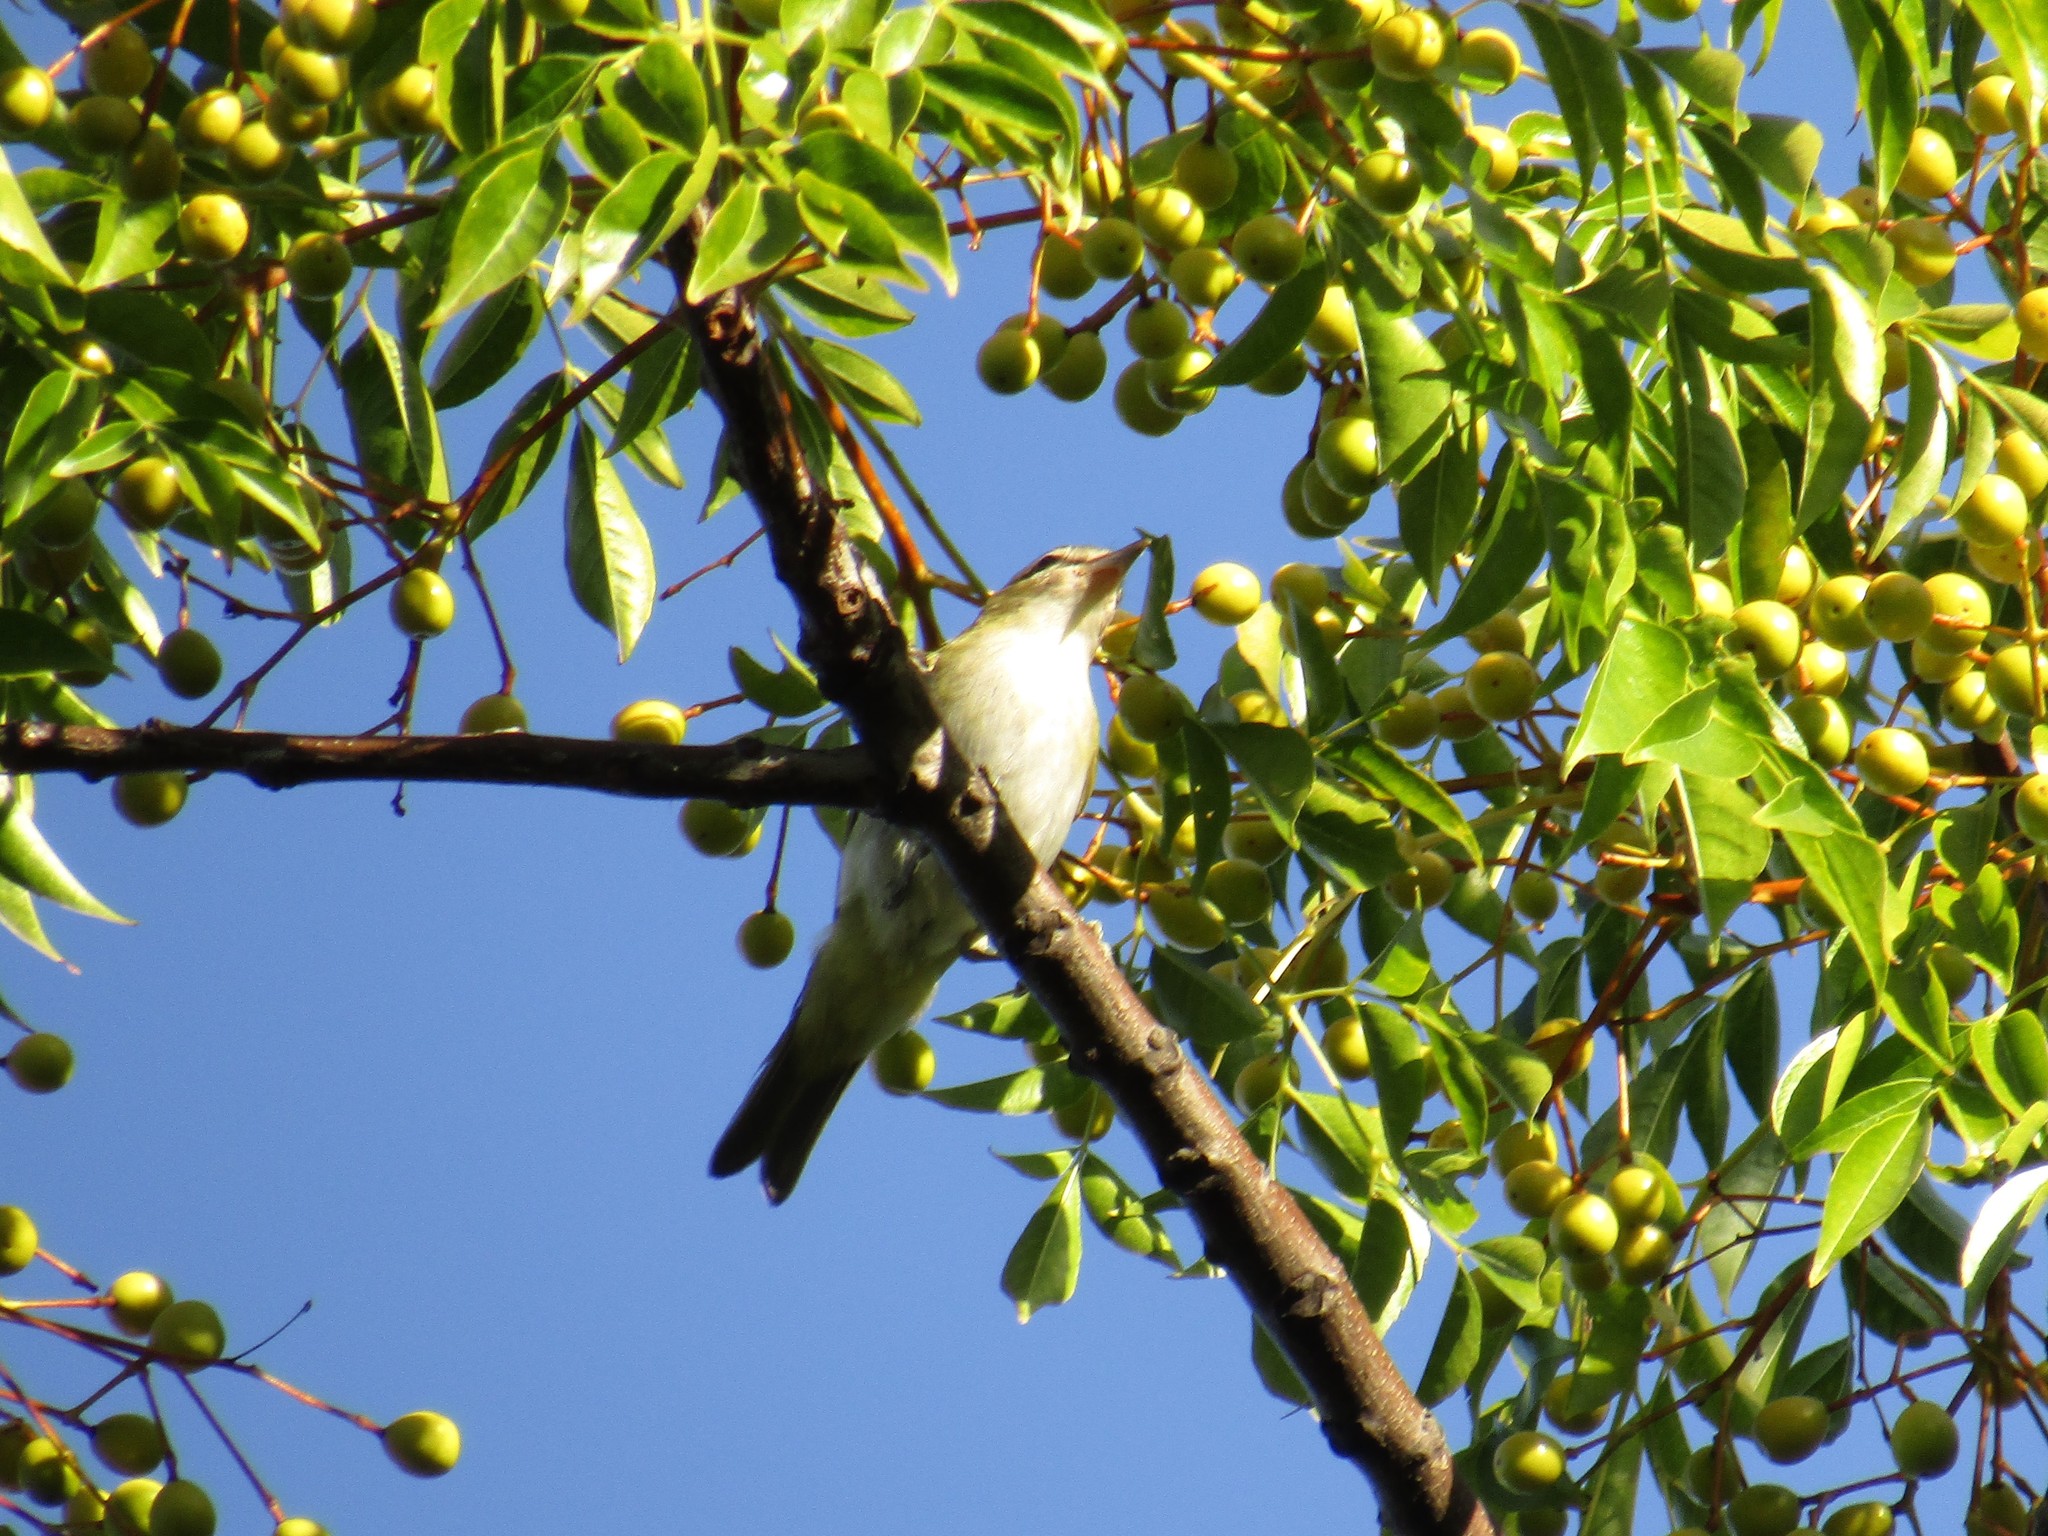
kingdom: Animalia
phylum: Chordata
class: Aves
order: Passeriformes
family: Vireonidae
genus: Vireo
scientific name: Vireo olivaceus
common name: Red-eyed vireo
